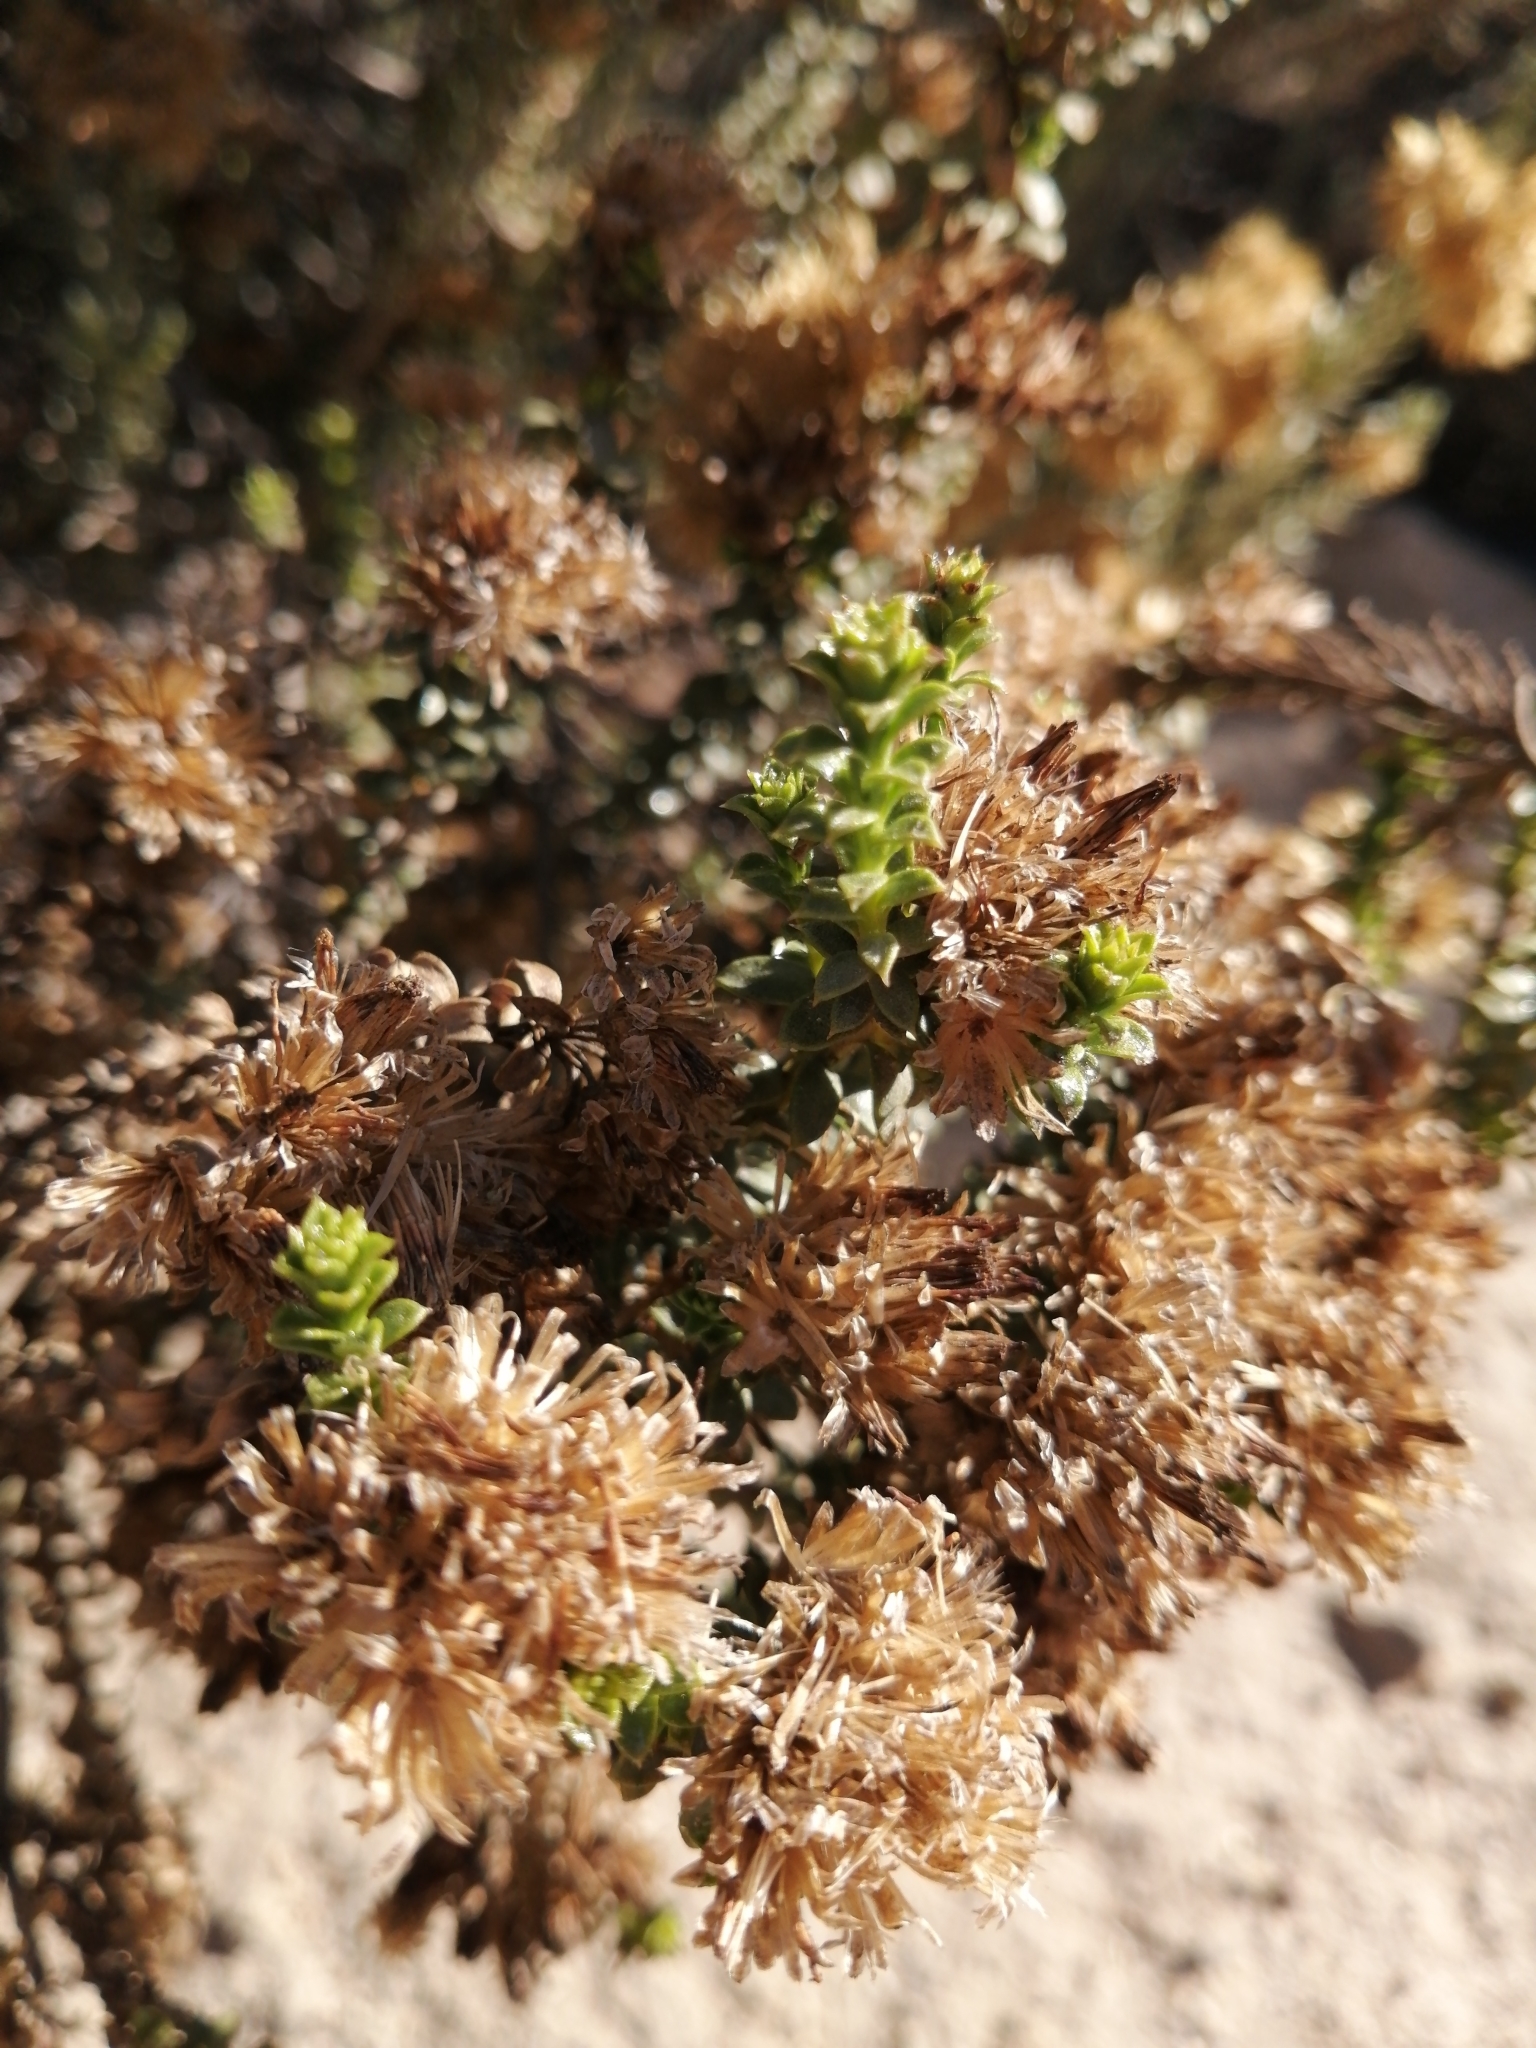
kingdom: Plantae
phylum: Tracheophyta
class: Magnoliopsida
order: Asterales
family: Asteraceae
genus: Oedera
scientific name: Oedera squarrosa
